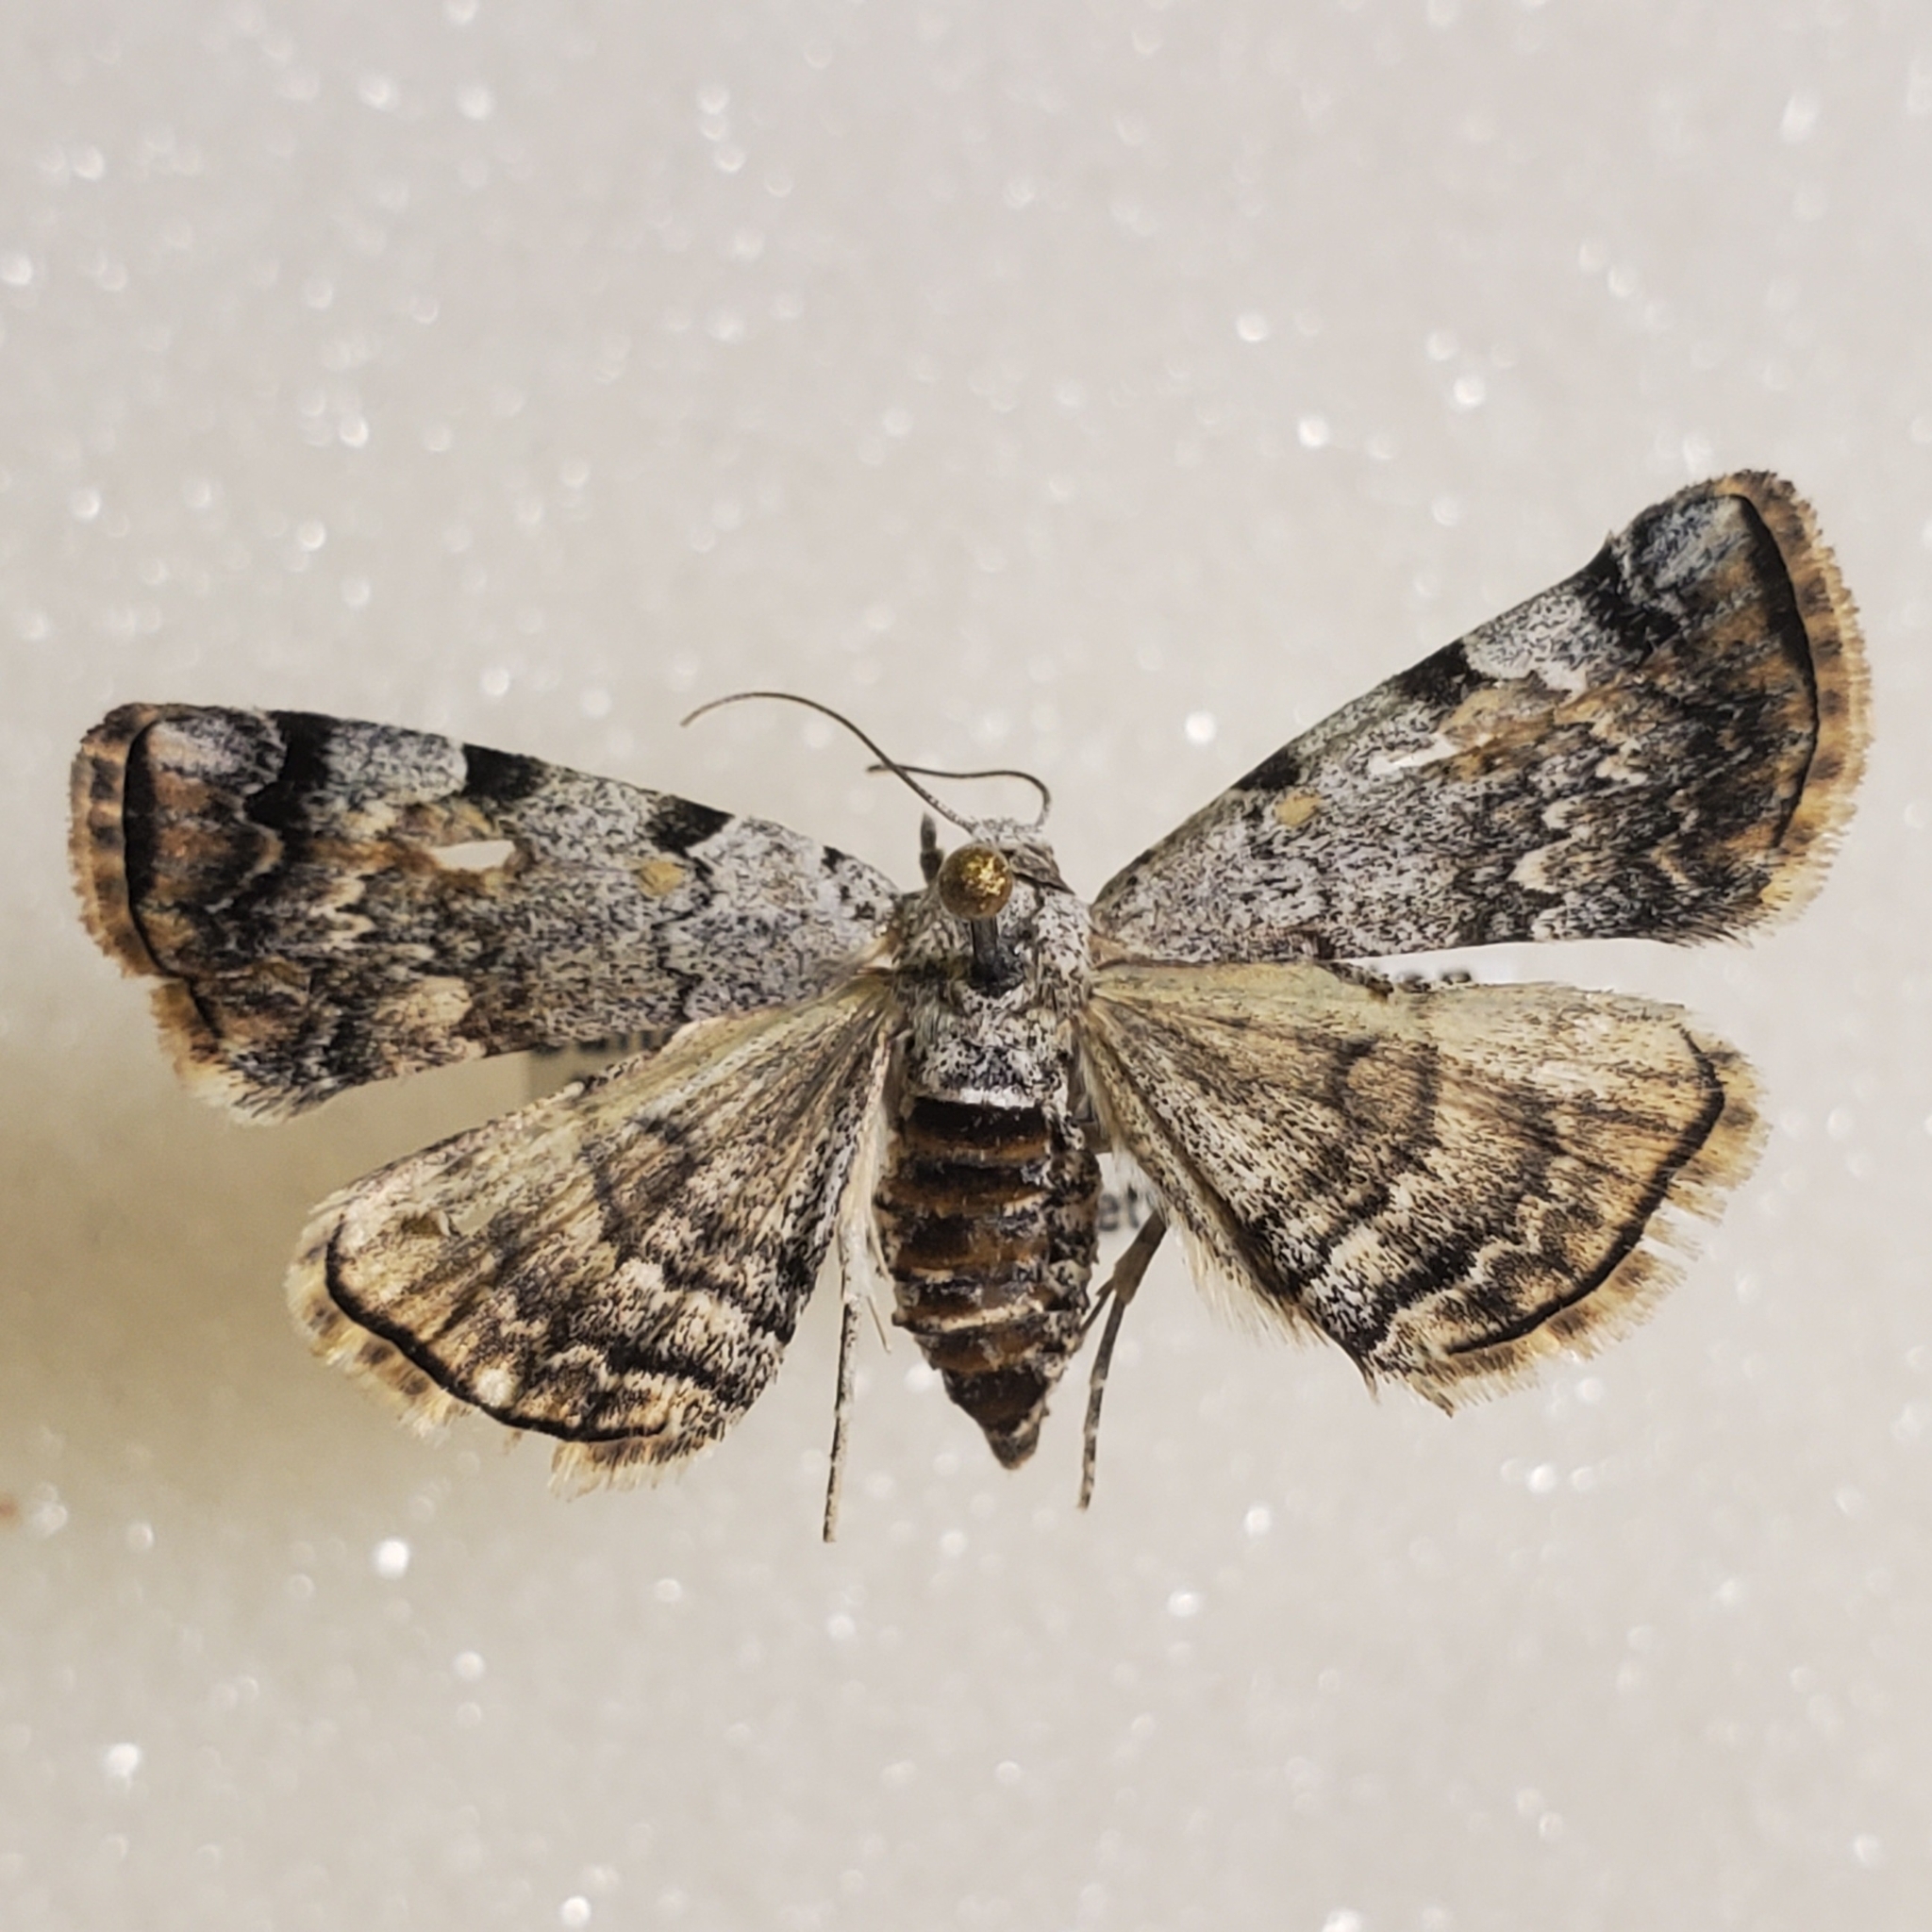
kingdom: Animalia
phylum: Arthropoda
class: Insecta
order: Lepidoptera
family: Erebidae
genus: Idia
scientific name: Idia americalis
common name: American idia moth
